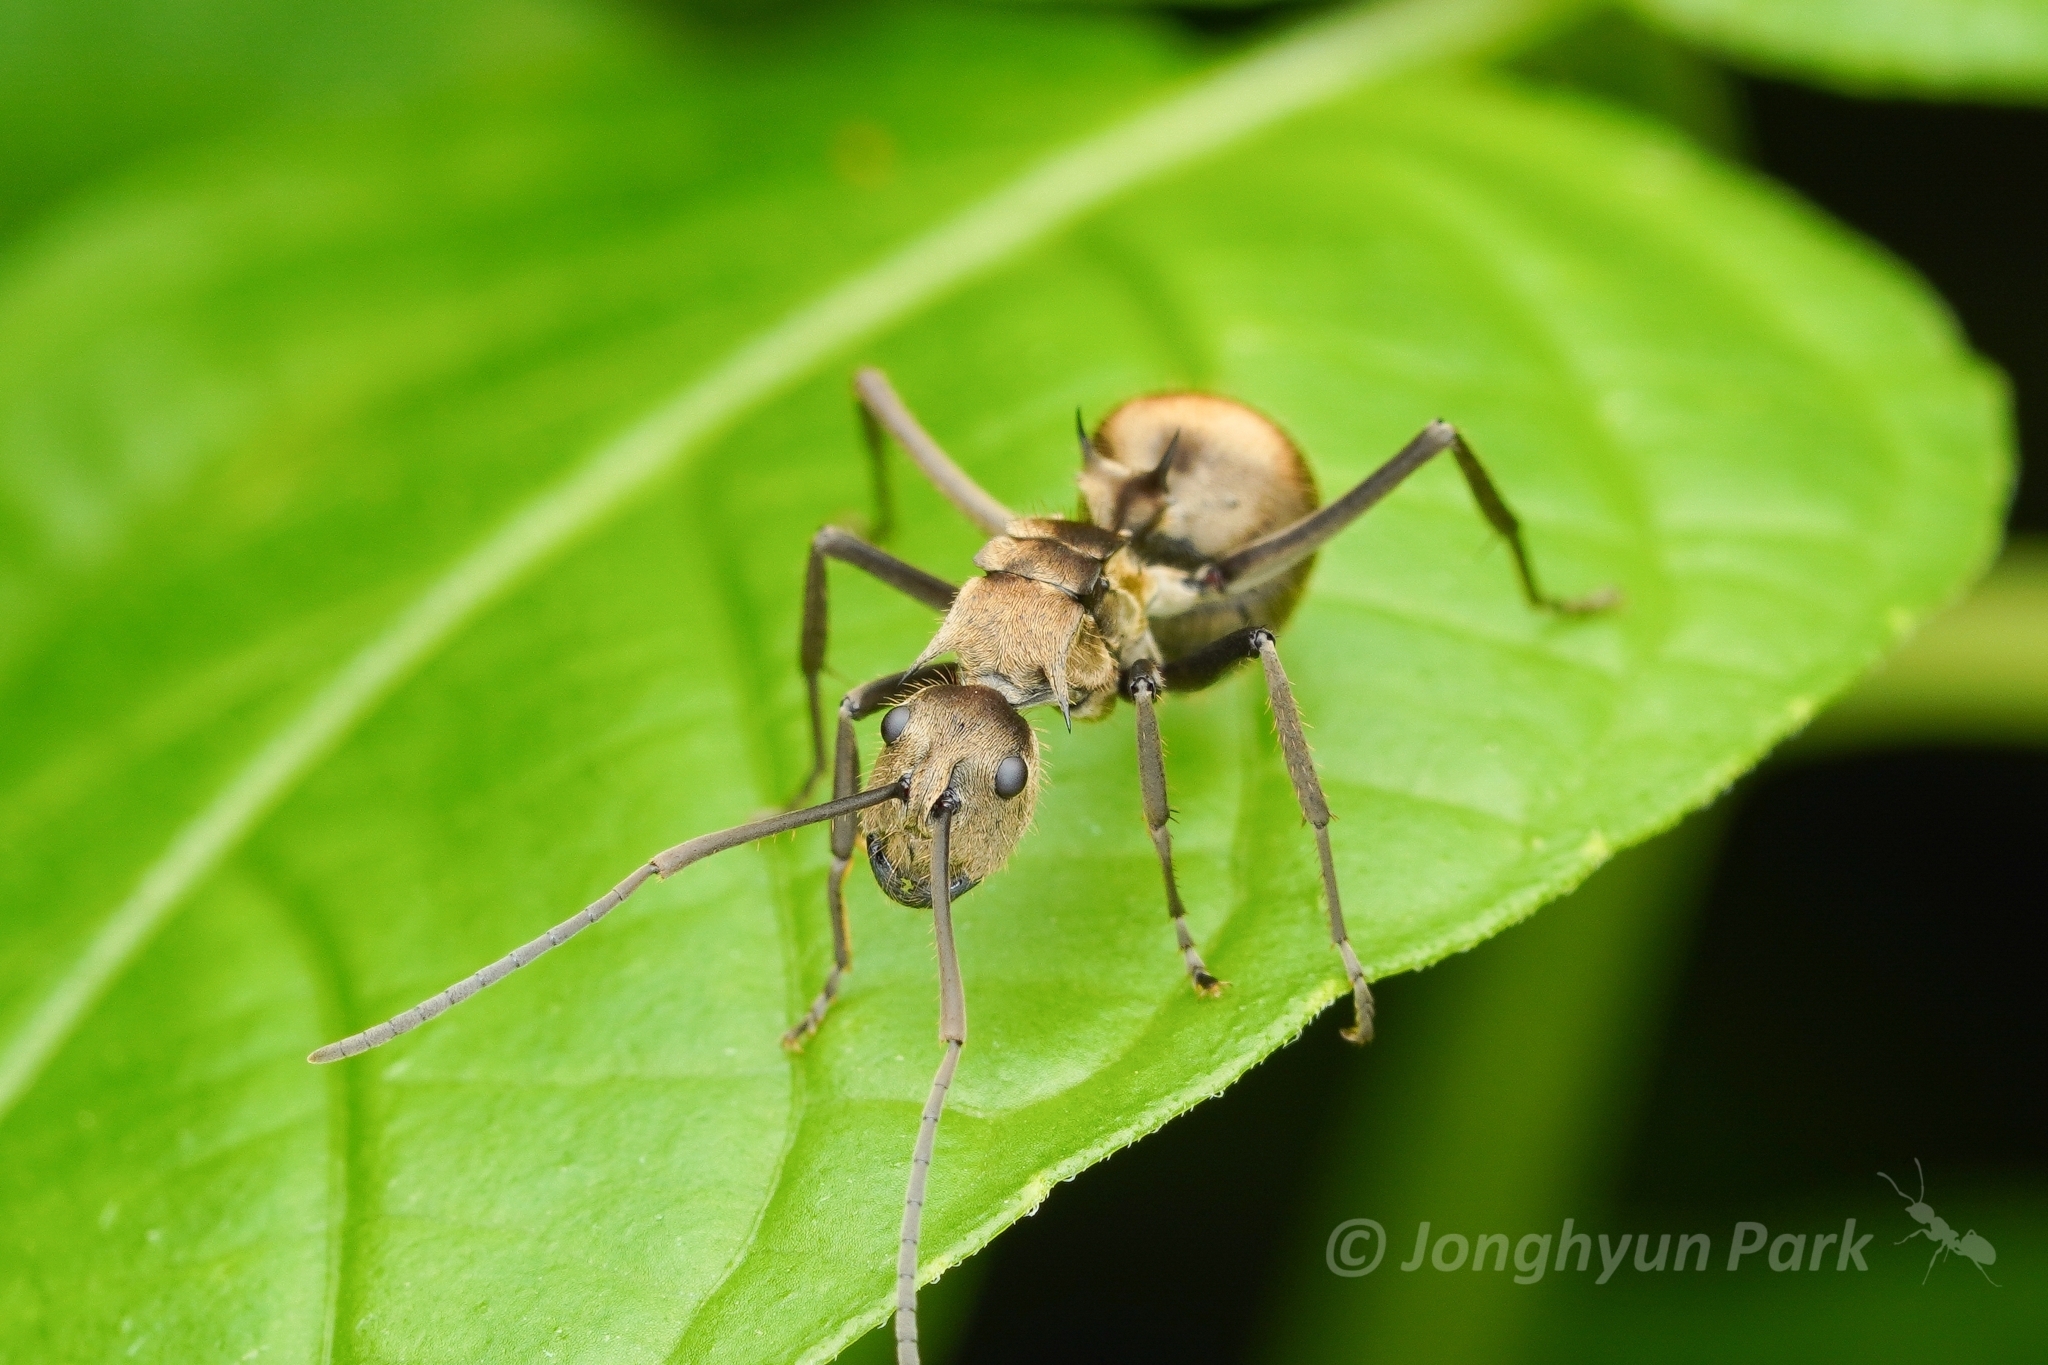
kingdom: Animalia
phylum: Arthropoda
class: Insecta
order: Hymenoptera
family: Formicidae
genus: Polyrhachis
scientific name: Polyrhachis proxima
